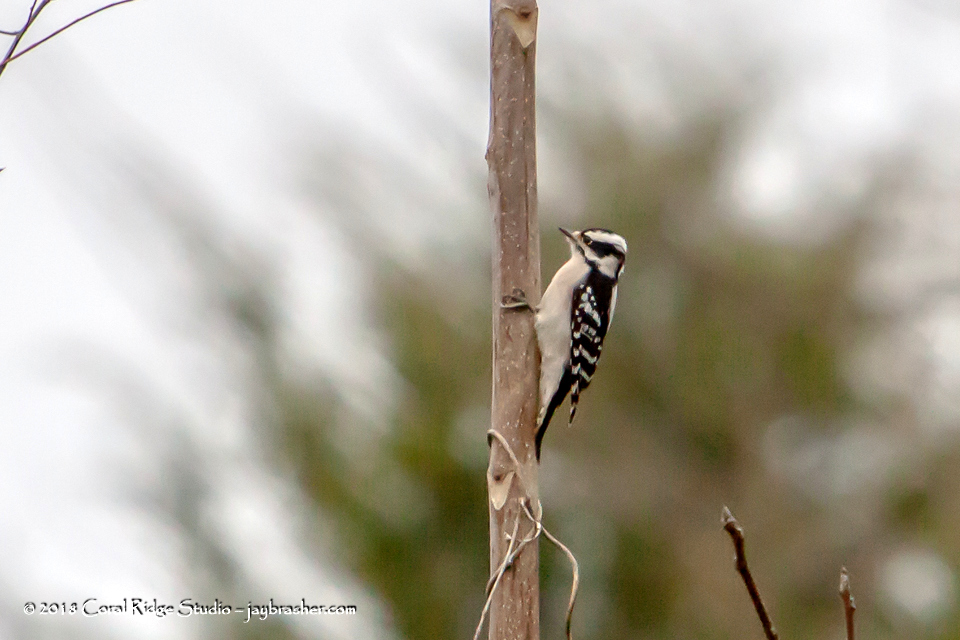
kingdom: Animalia
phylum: Chordata
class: Aves
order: Piciformes
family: Picidae
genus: Dryobates
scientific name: Dryobates pubescens
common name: Downy woodpecker
